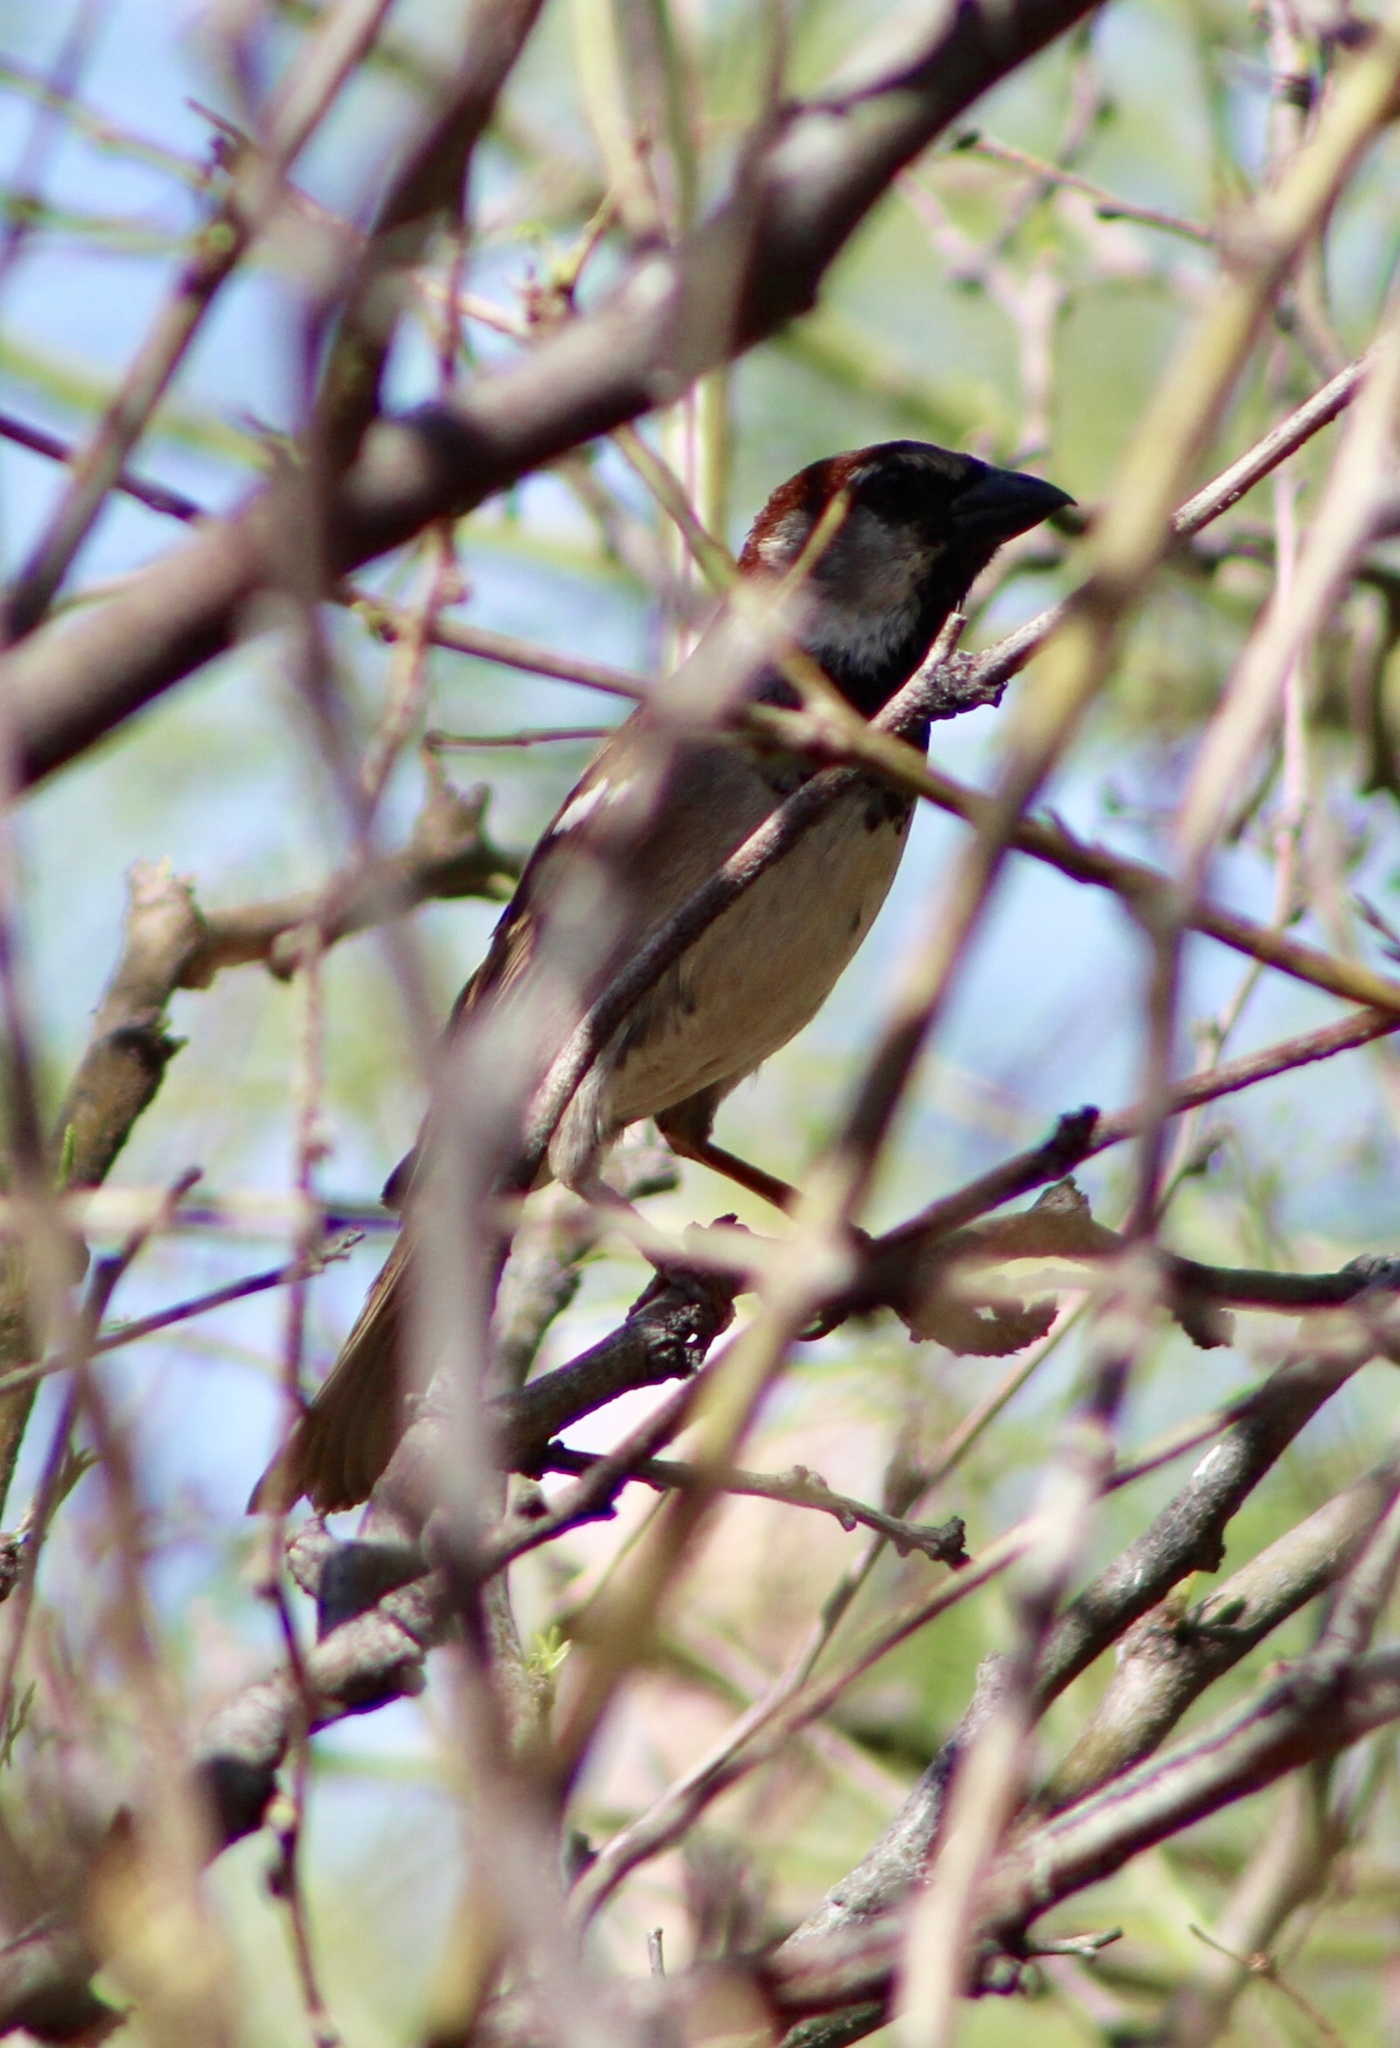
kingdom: Animalia
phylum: Chordata
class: Aves
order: Passeriformes
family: Passeridae
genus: Passer
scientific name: Passer domesticus
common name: House sparrow
